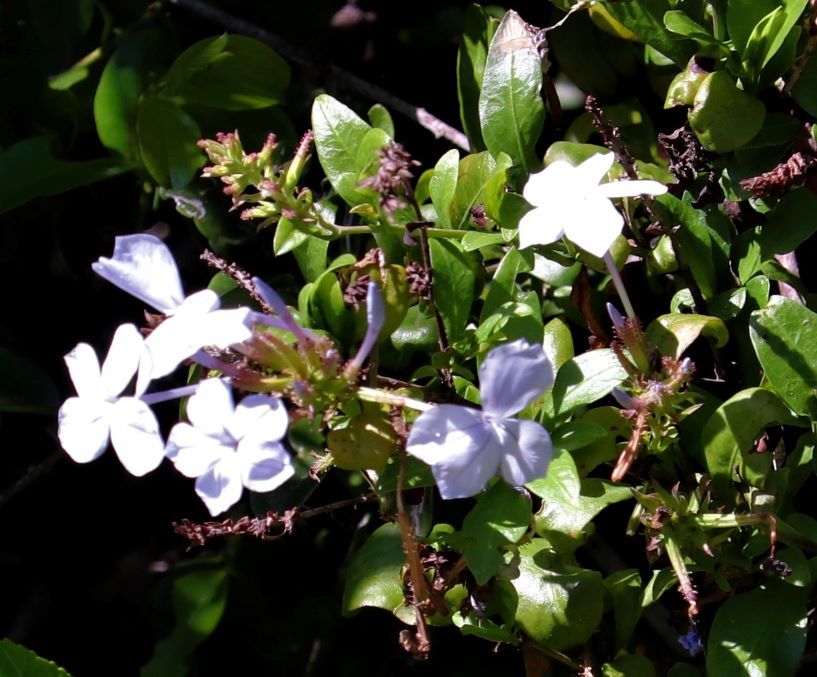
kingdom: Plantae
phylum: Tracheophyta
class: Magnoliopsida
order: Caryophyllales
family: Plumbaginaceae
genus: Plumbago
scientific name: Plumbago auriculata
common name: Cape leadwort
